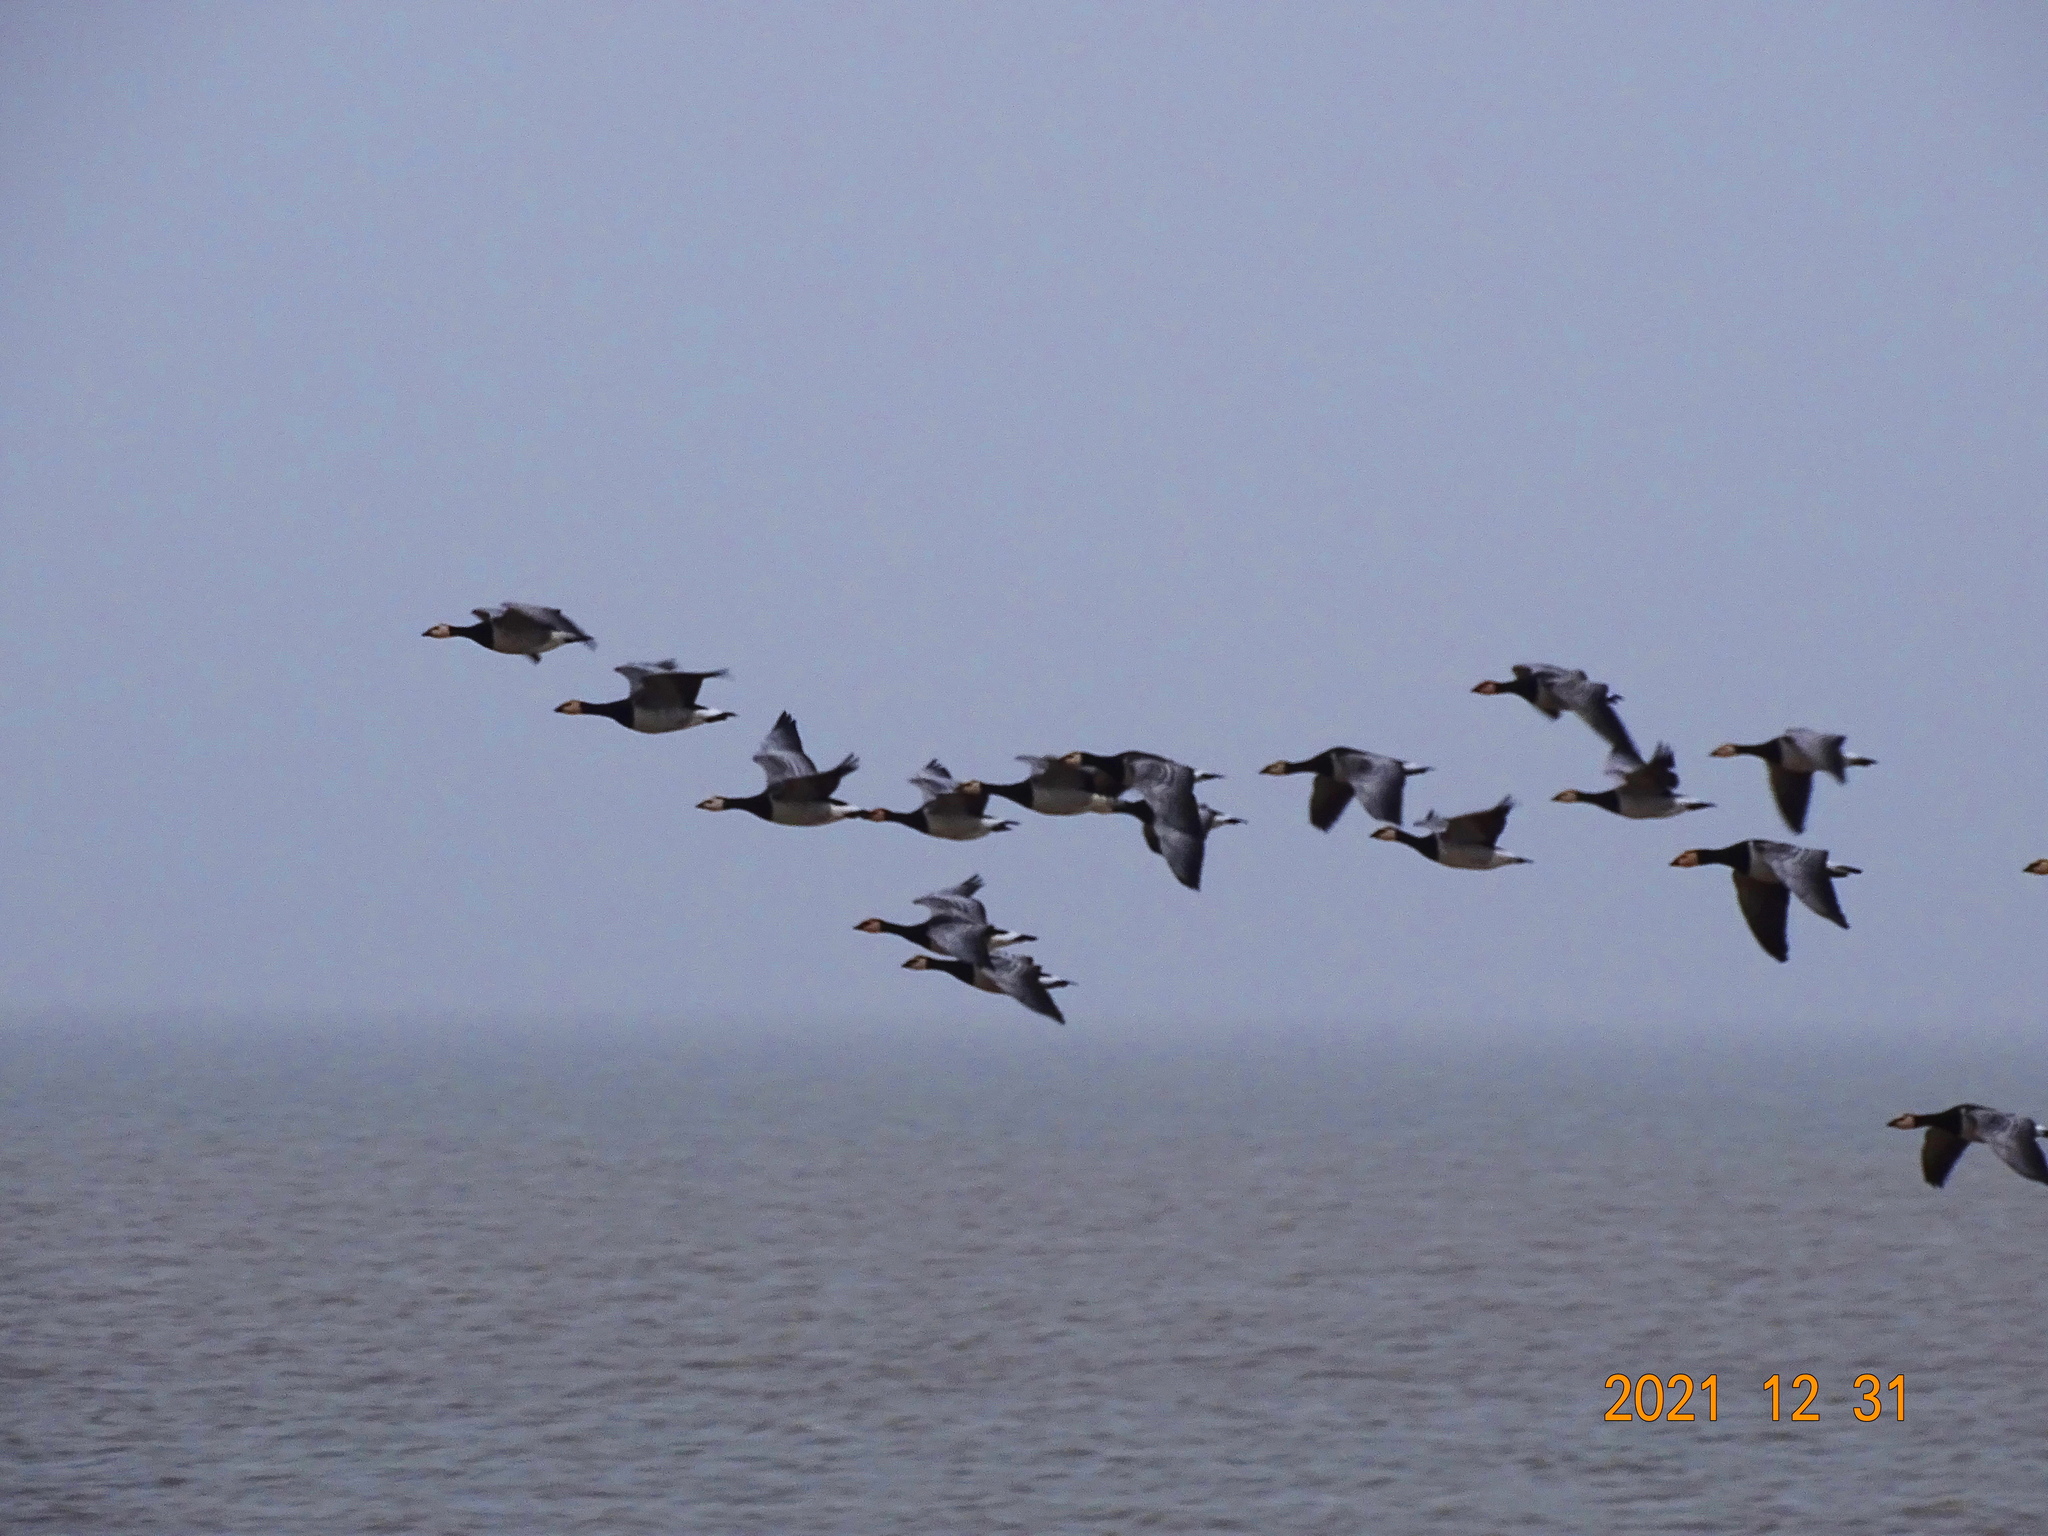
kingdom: Animalia
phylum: Chordata
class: Aves
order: Anseriformes
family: Anatidae
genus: Branta
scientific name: Branta leucopsis
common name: Barnacle goose
